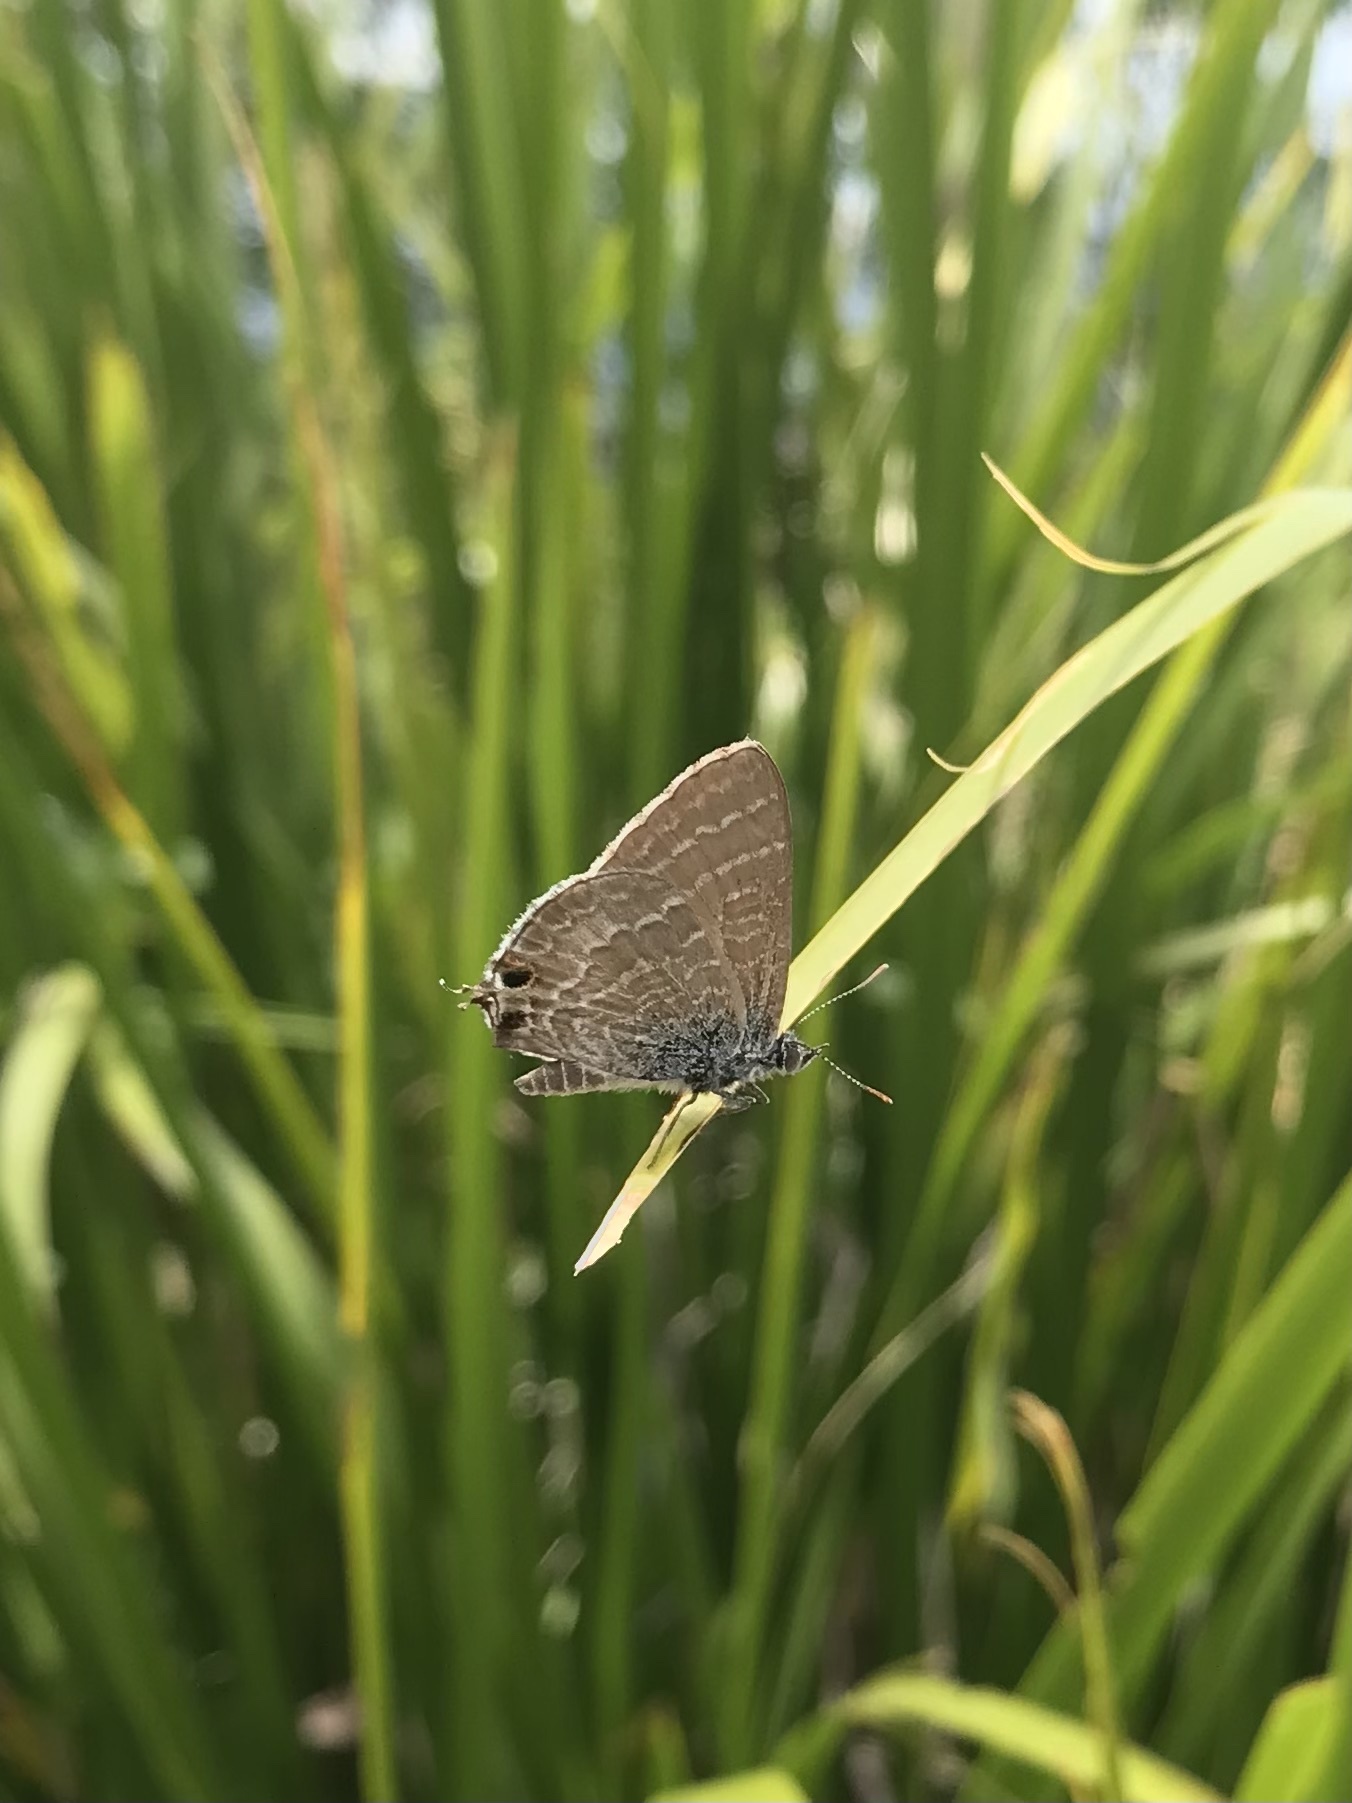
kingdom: Animalia
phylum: Arthropoda
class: Insecta
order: Lepidoptera
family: Lycaenidae
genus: Theclinesthes
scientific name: Theclinesthes miskini
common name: Wattle blue
